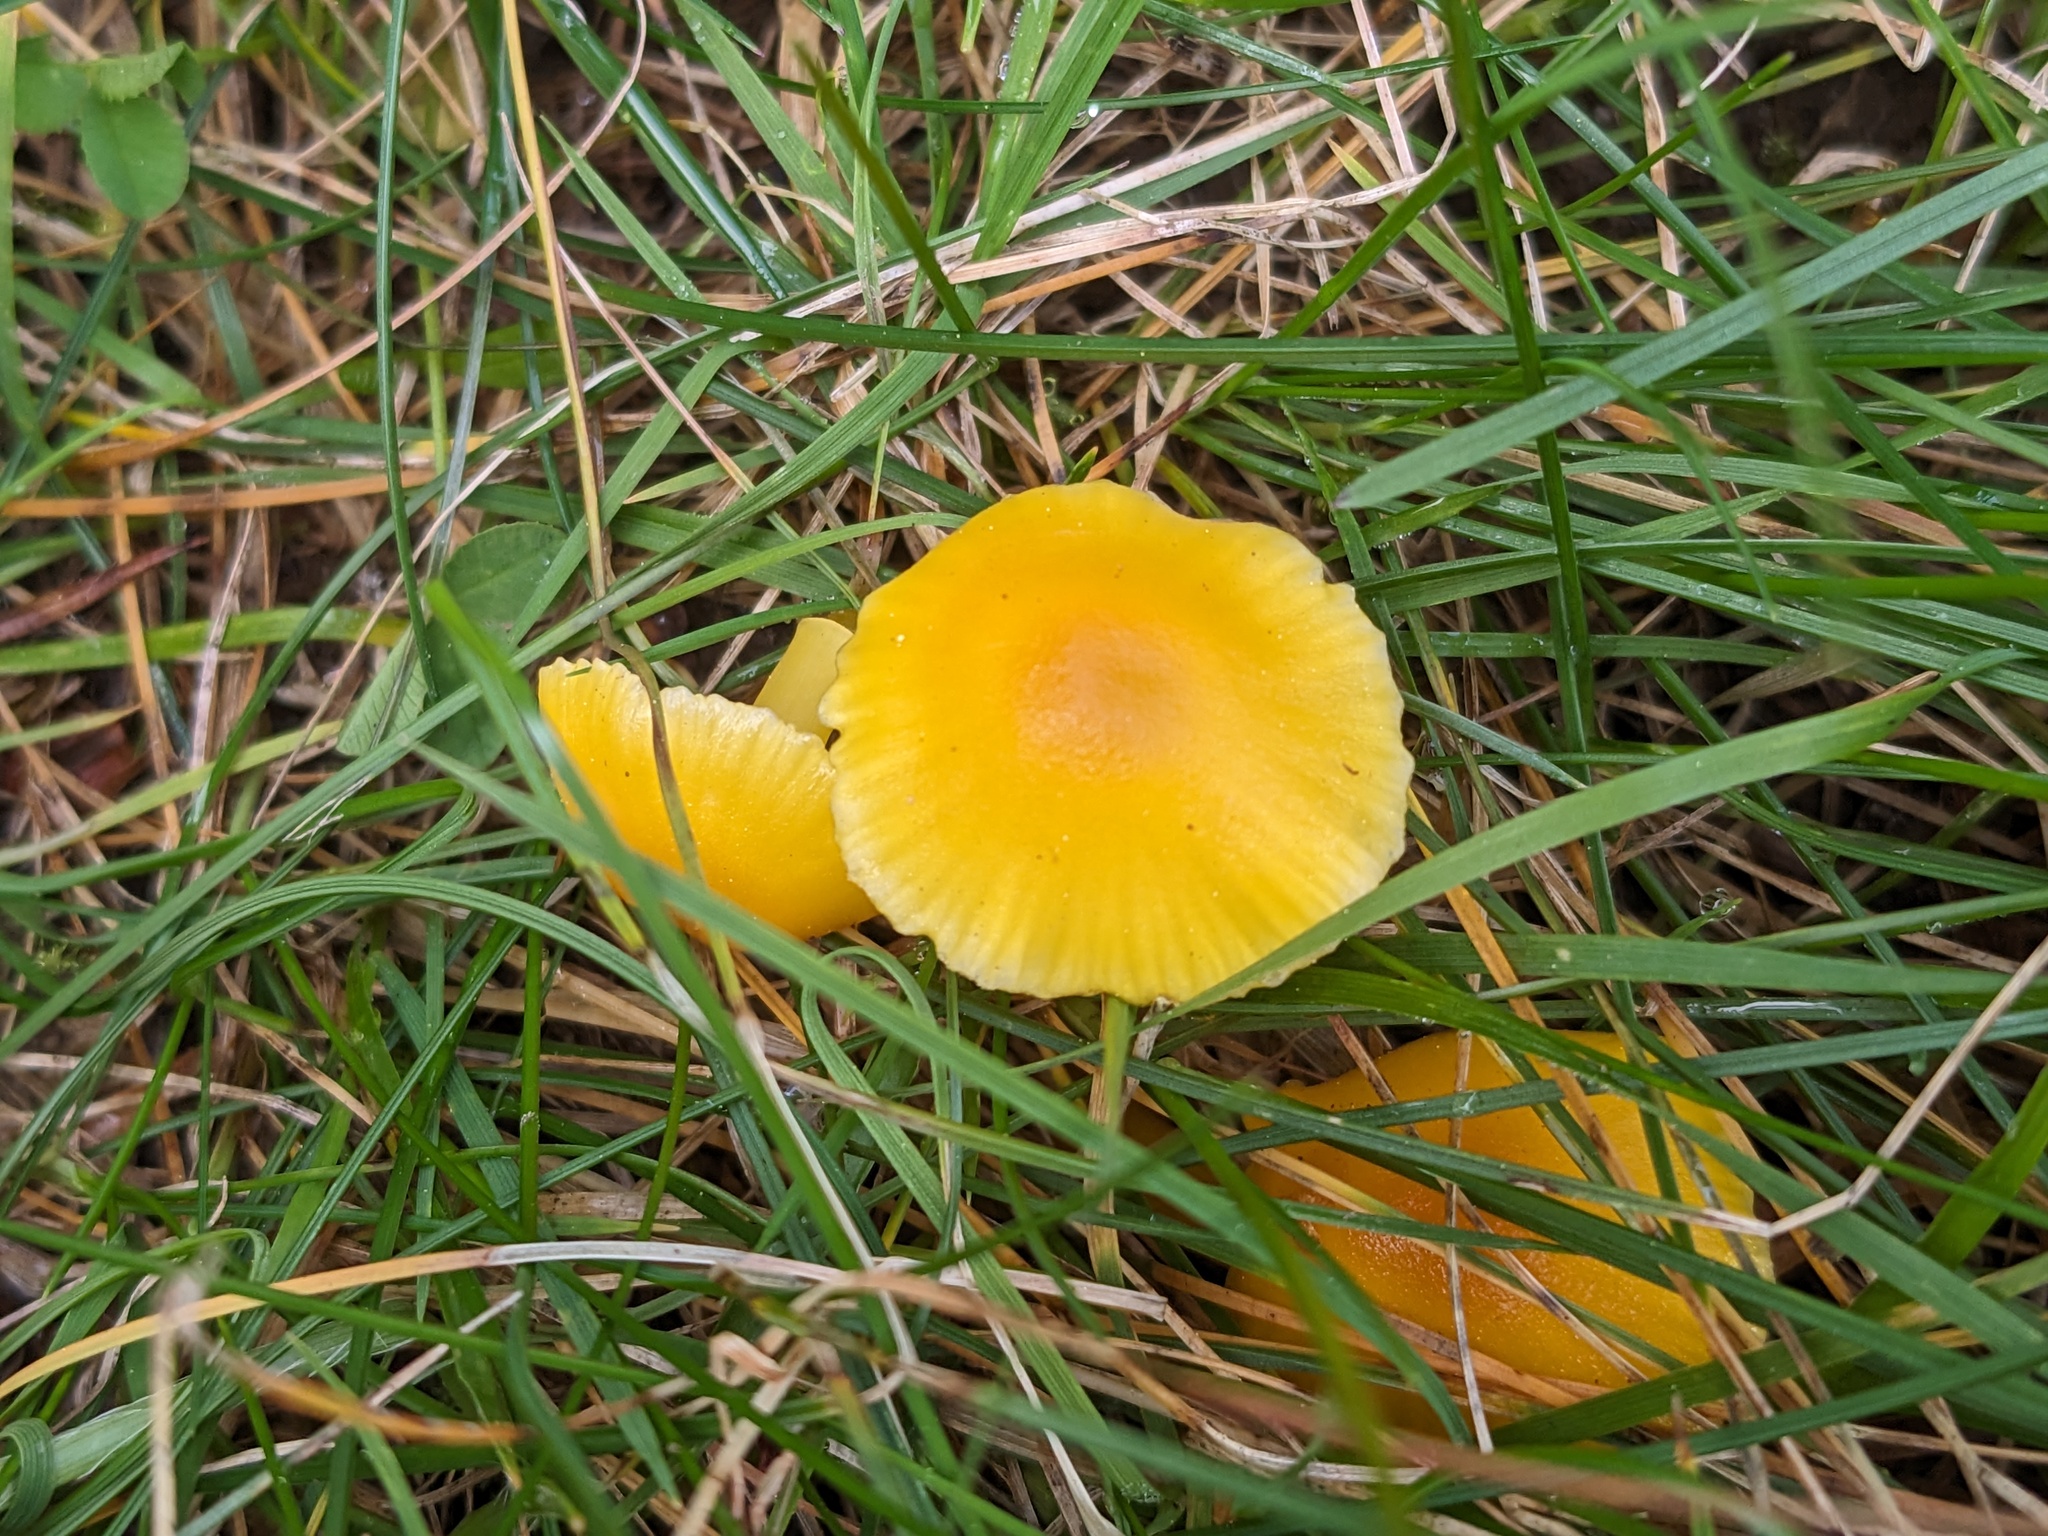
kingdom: Fungi
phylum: Basidiomycota
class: Agaricomycetes
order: Agaricales
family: Hygrophoraceae
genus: Hygrocybe
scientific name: Hygrocybe ceracea
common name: Butter waxcap
